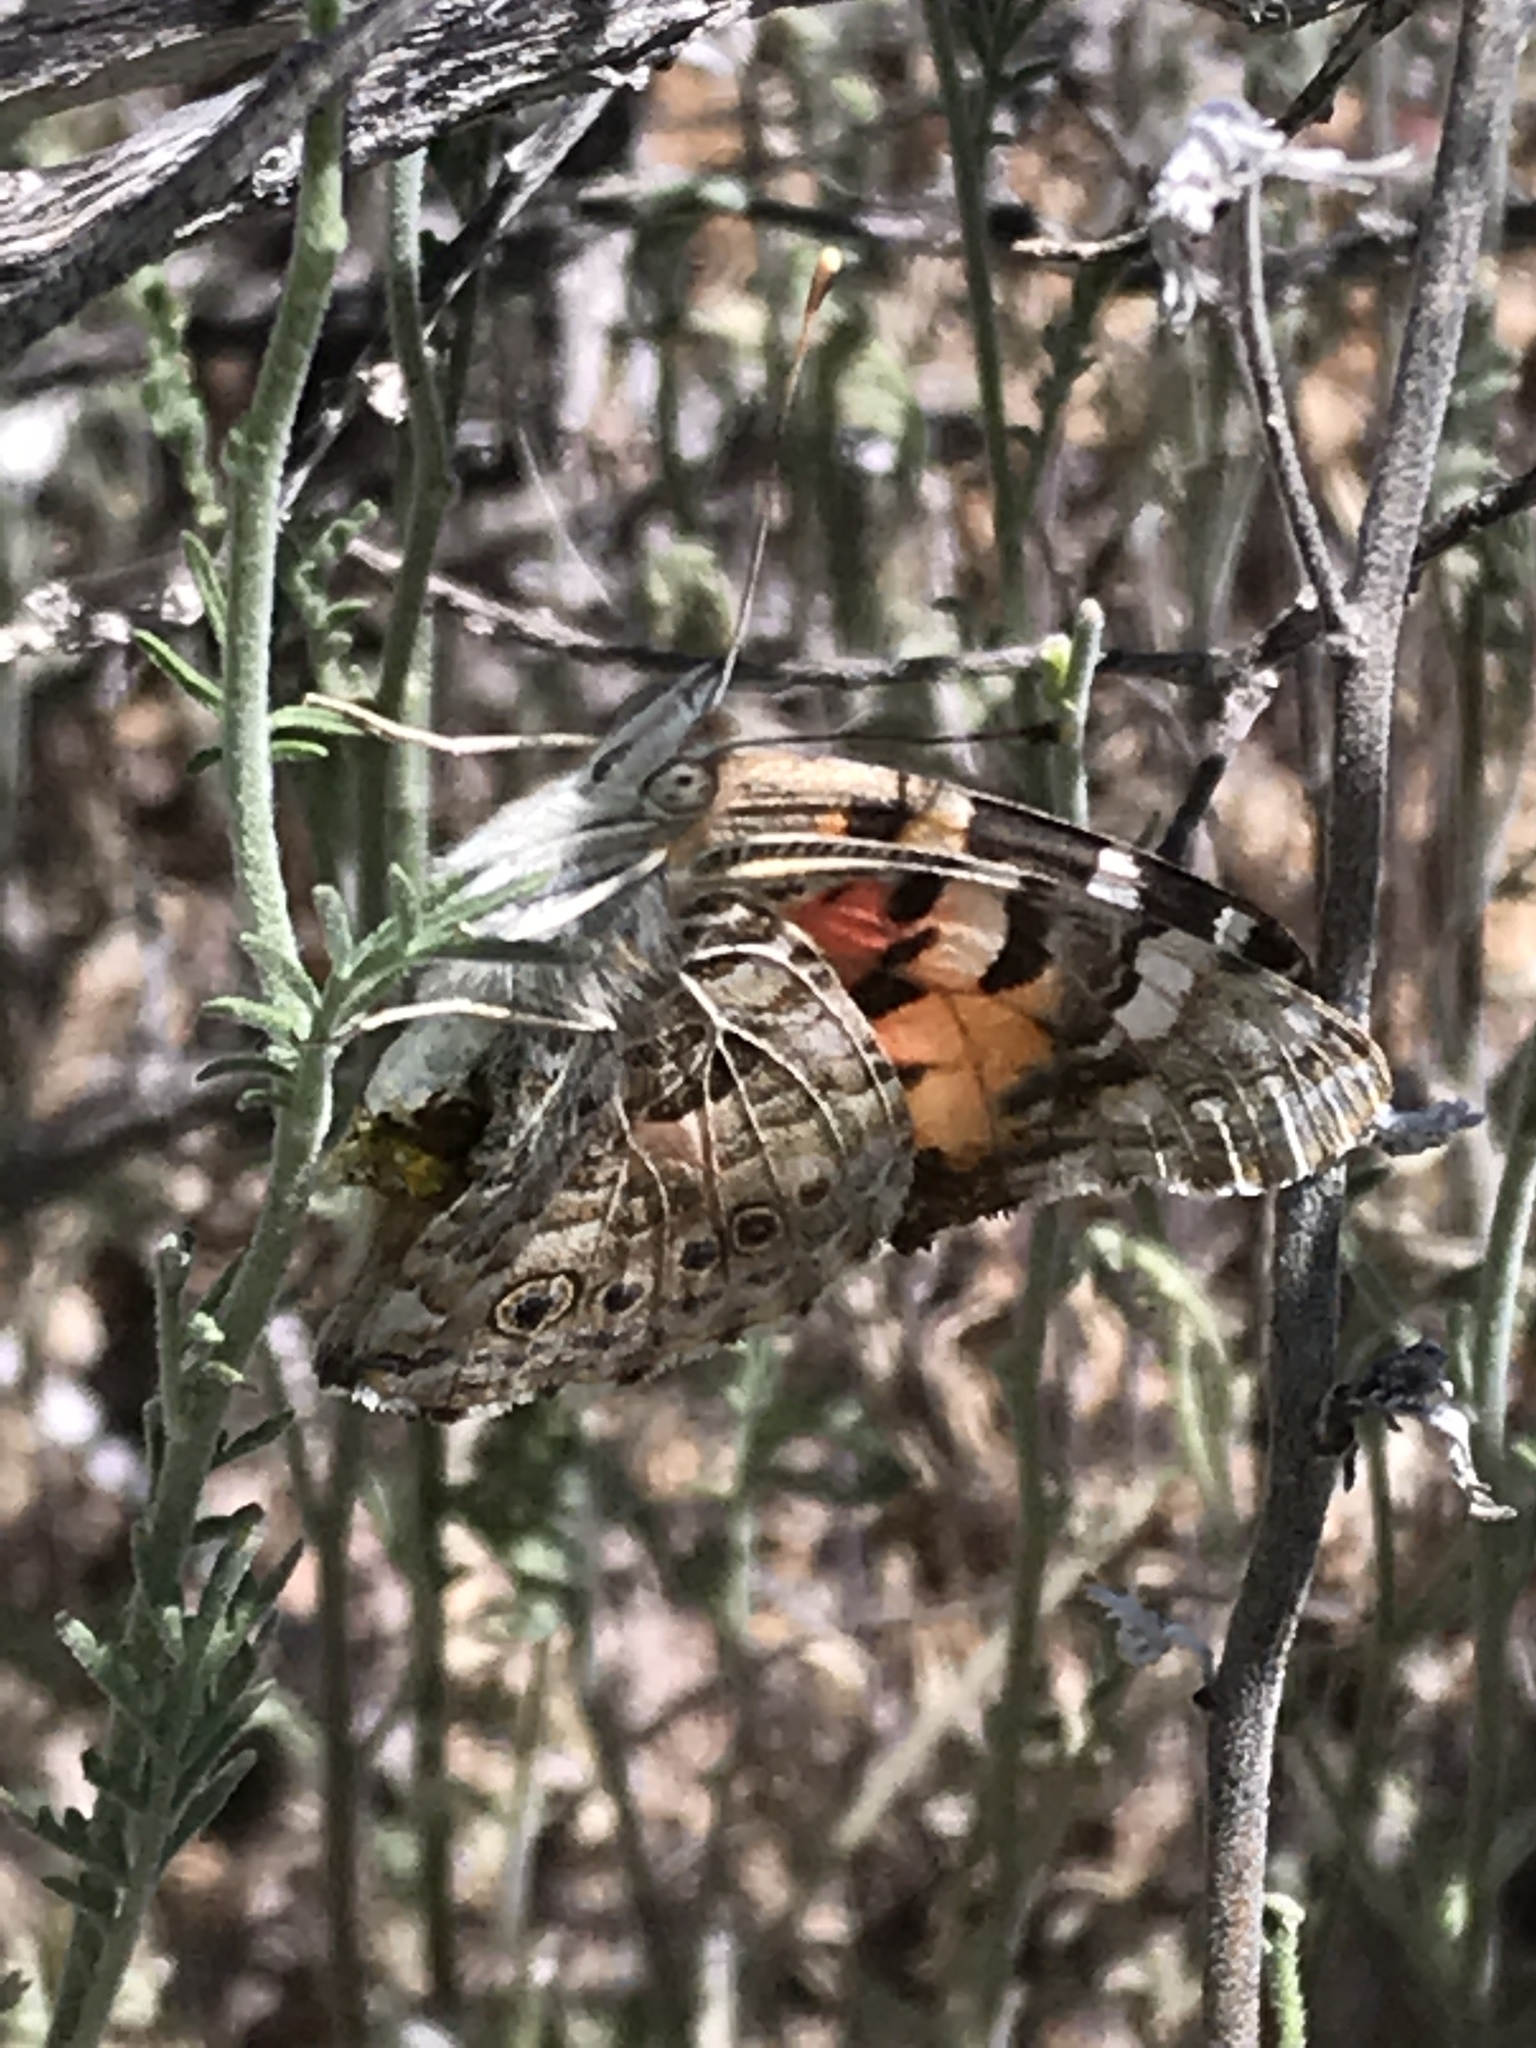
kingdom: Animalia
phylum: Arthropoda
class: Insecta
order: Lepidoptera
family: Nymphalidae
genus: Vanessa
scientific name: Vanessa cardui
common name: Painted lady
